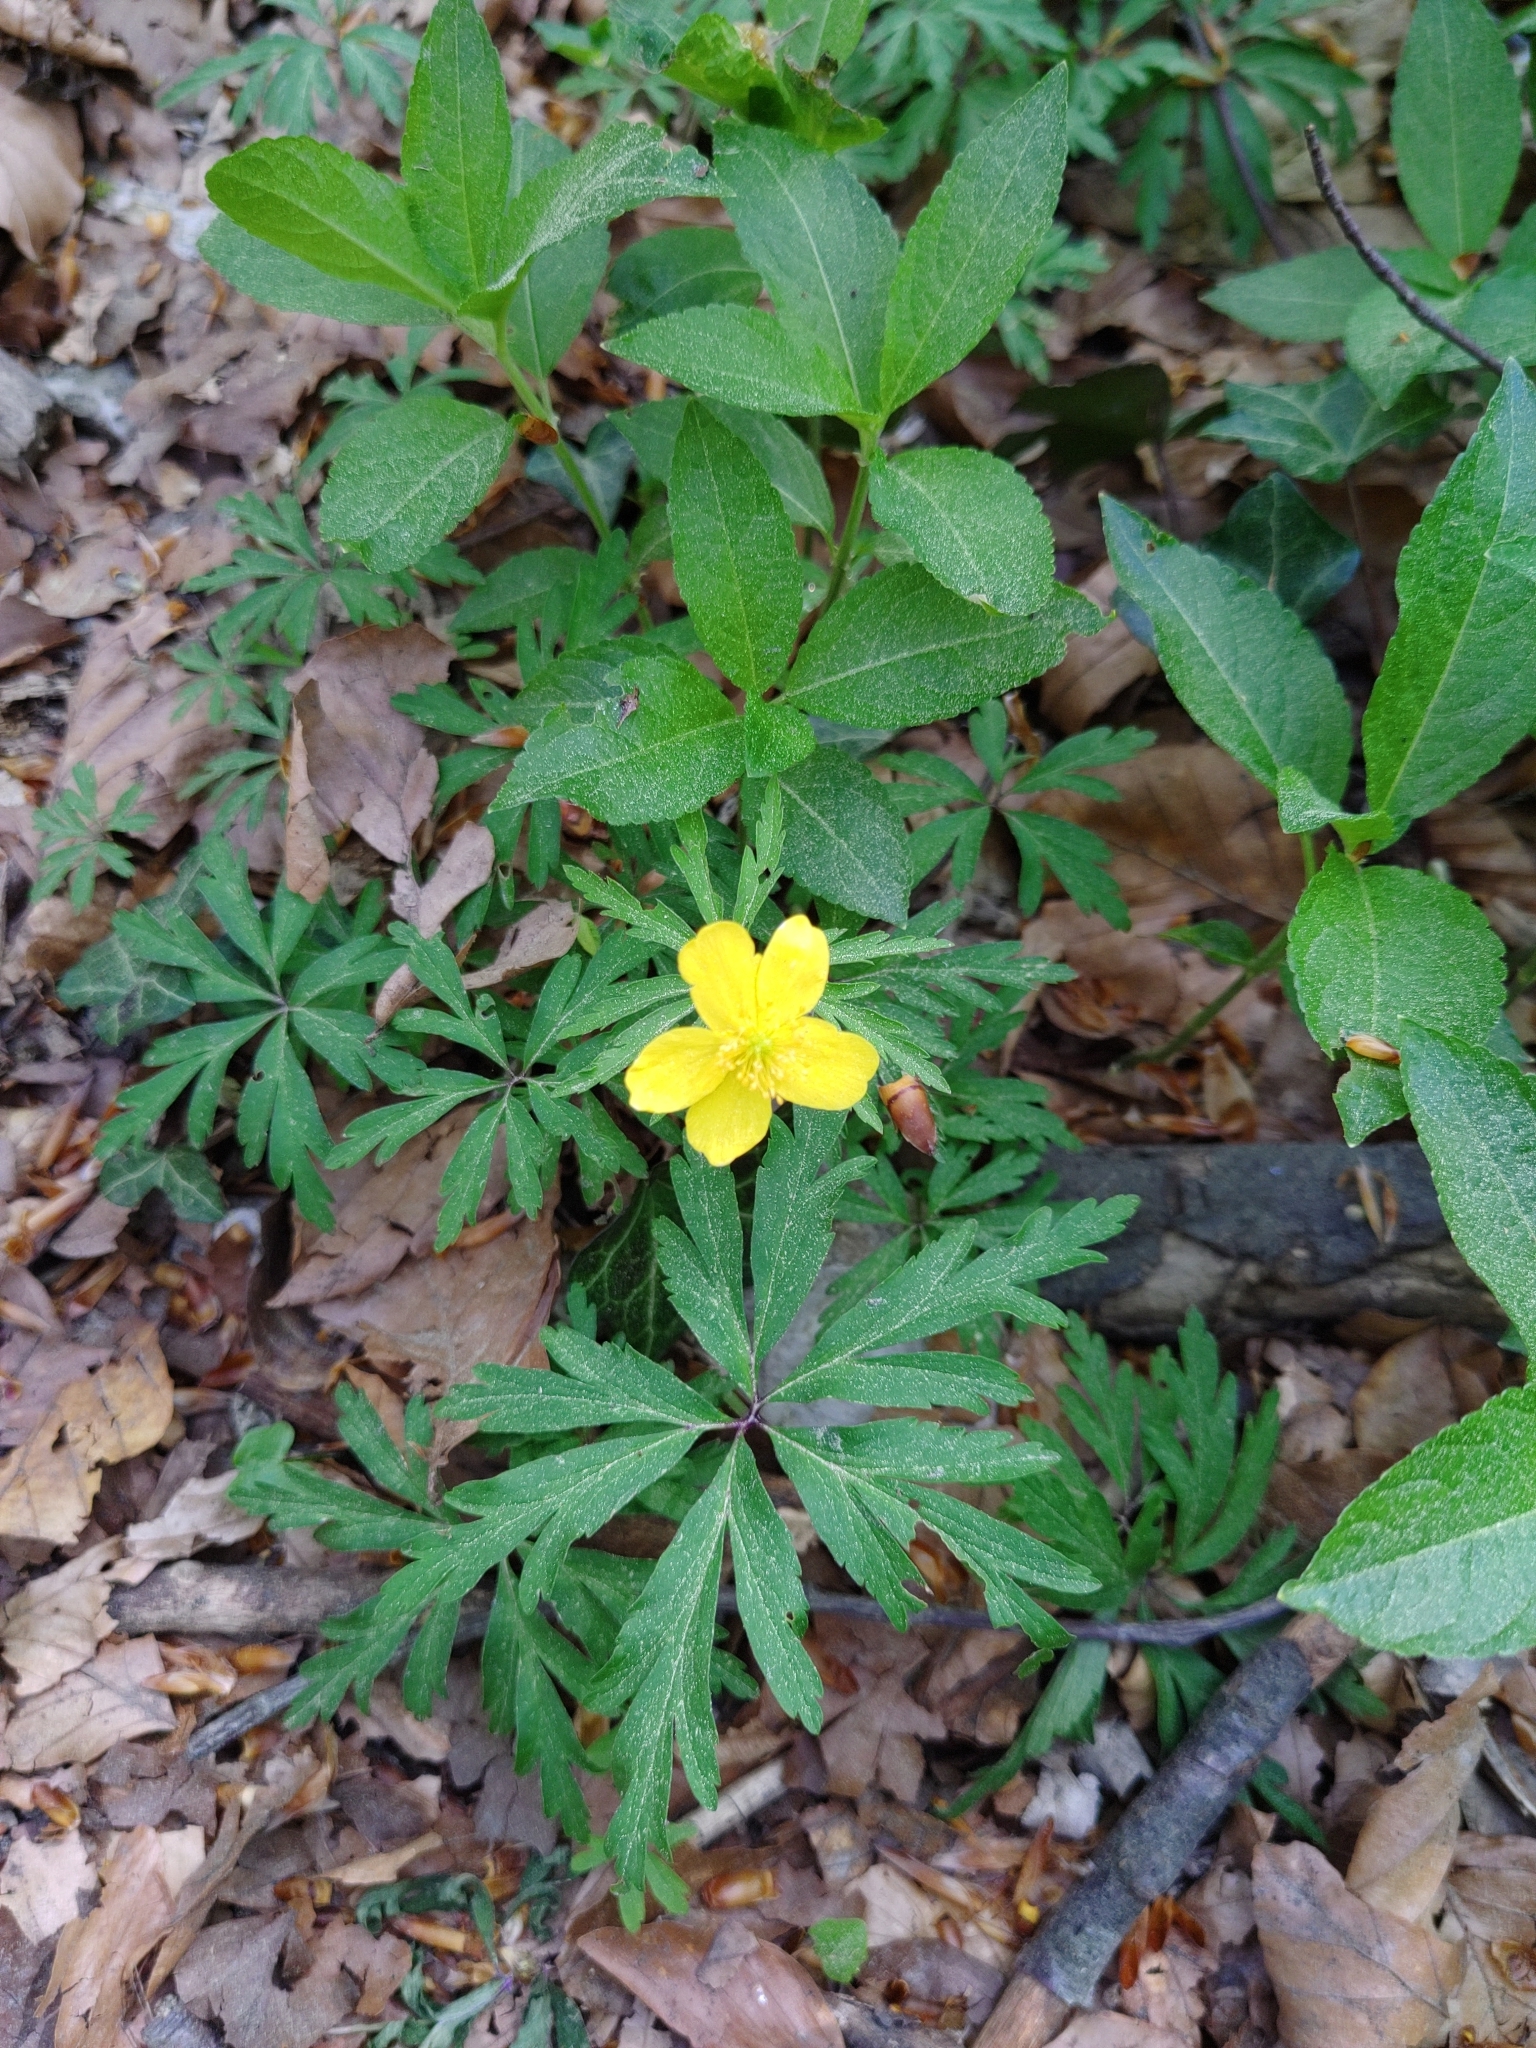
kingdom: Plantae
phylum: Tracheophyta
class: Magnoliopsida
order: Ranunculales
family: Ranunculaceae
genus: Anemone
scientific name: Anemone ranunculoides
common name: Yellow anemone
